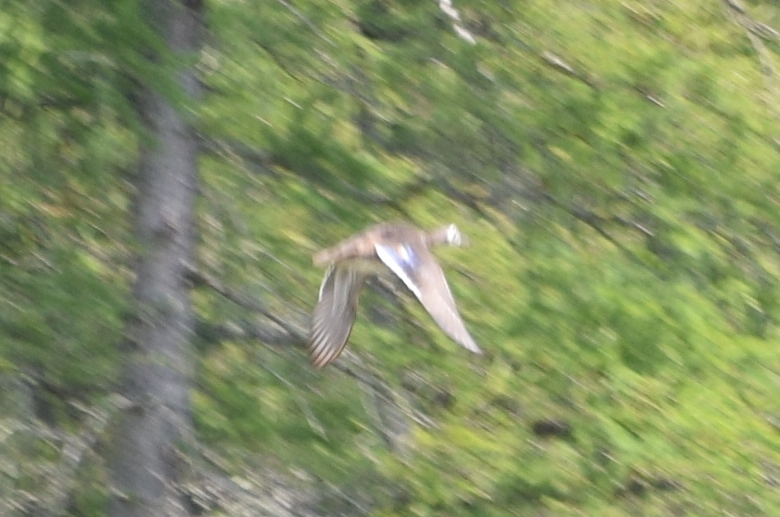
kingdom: Animalia
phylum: Chordata
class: Aves
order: Anseriformes
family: Anatidae
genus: Aix
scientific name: Aix sponsa
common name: Wood duck
